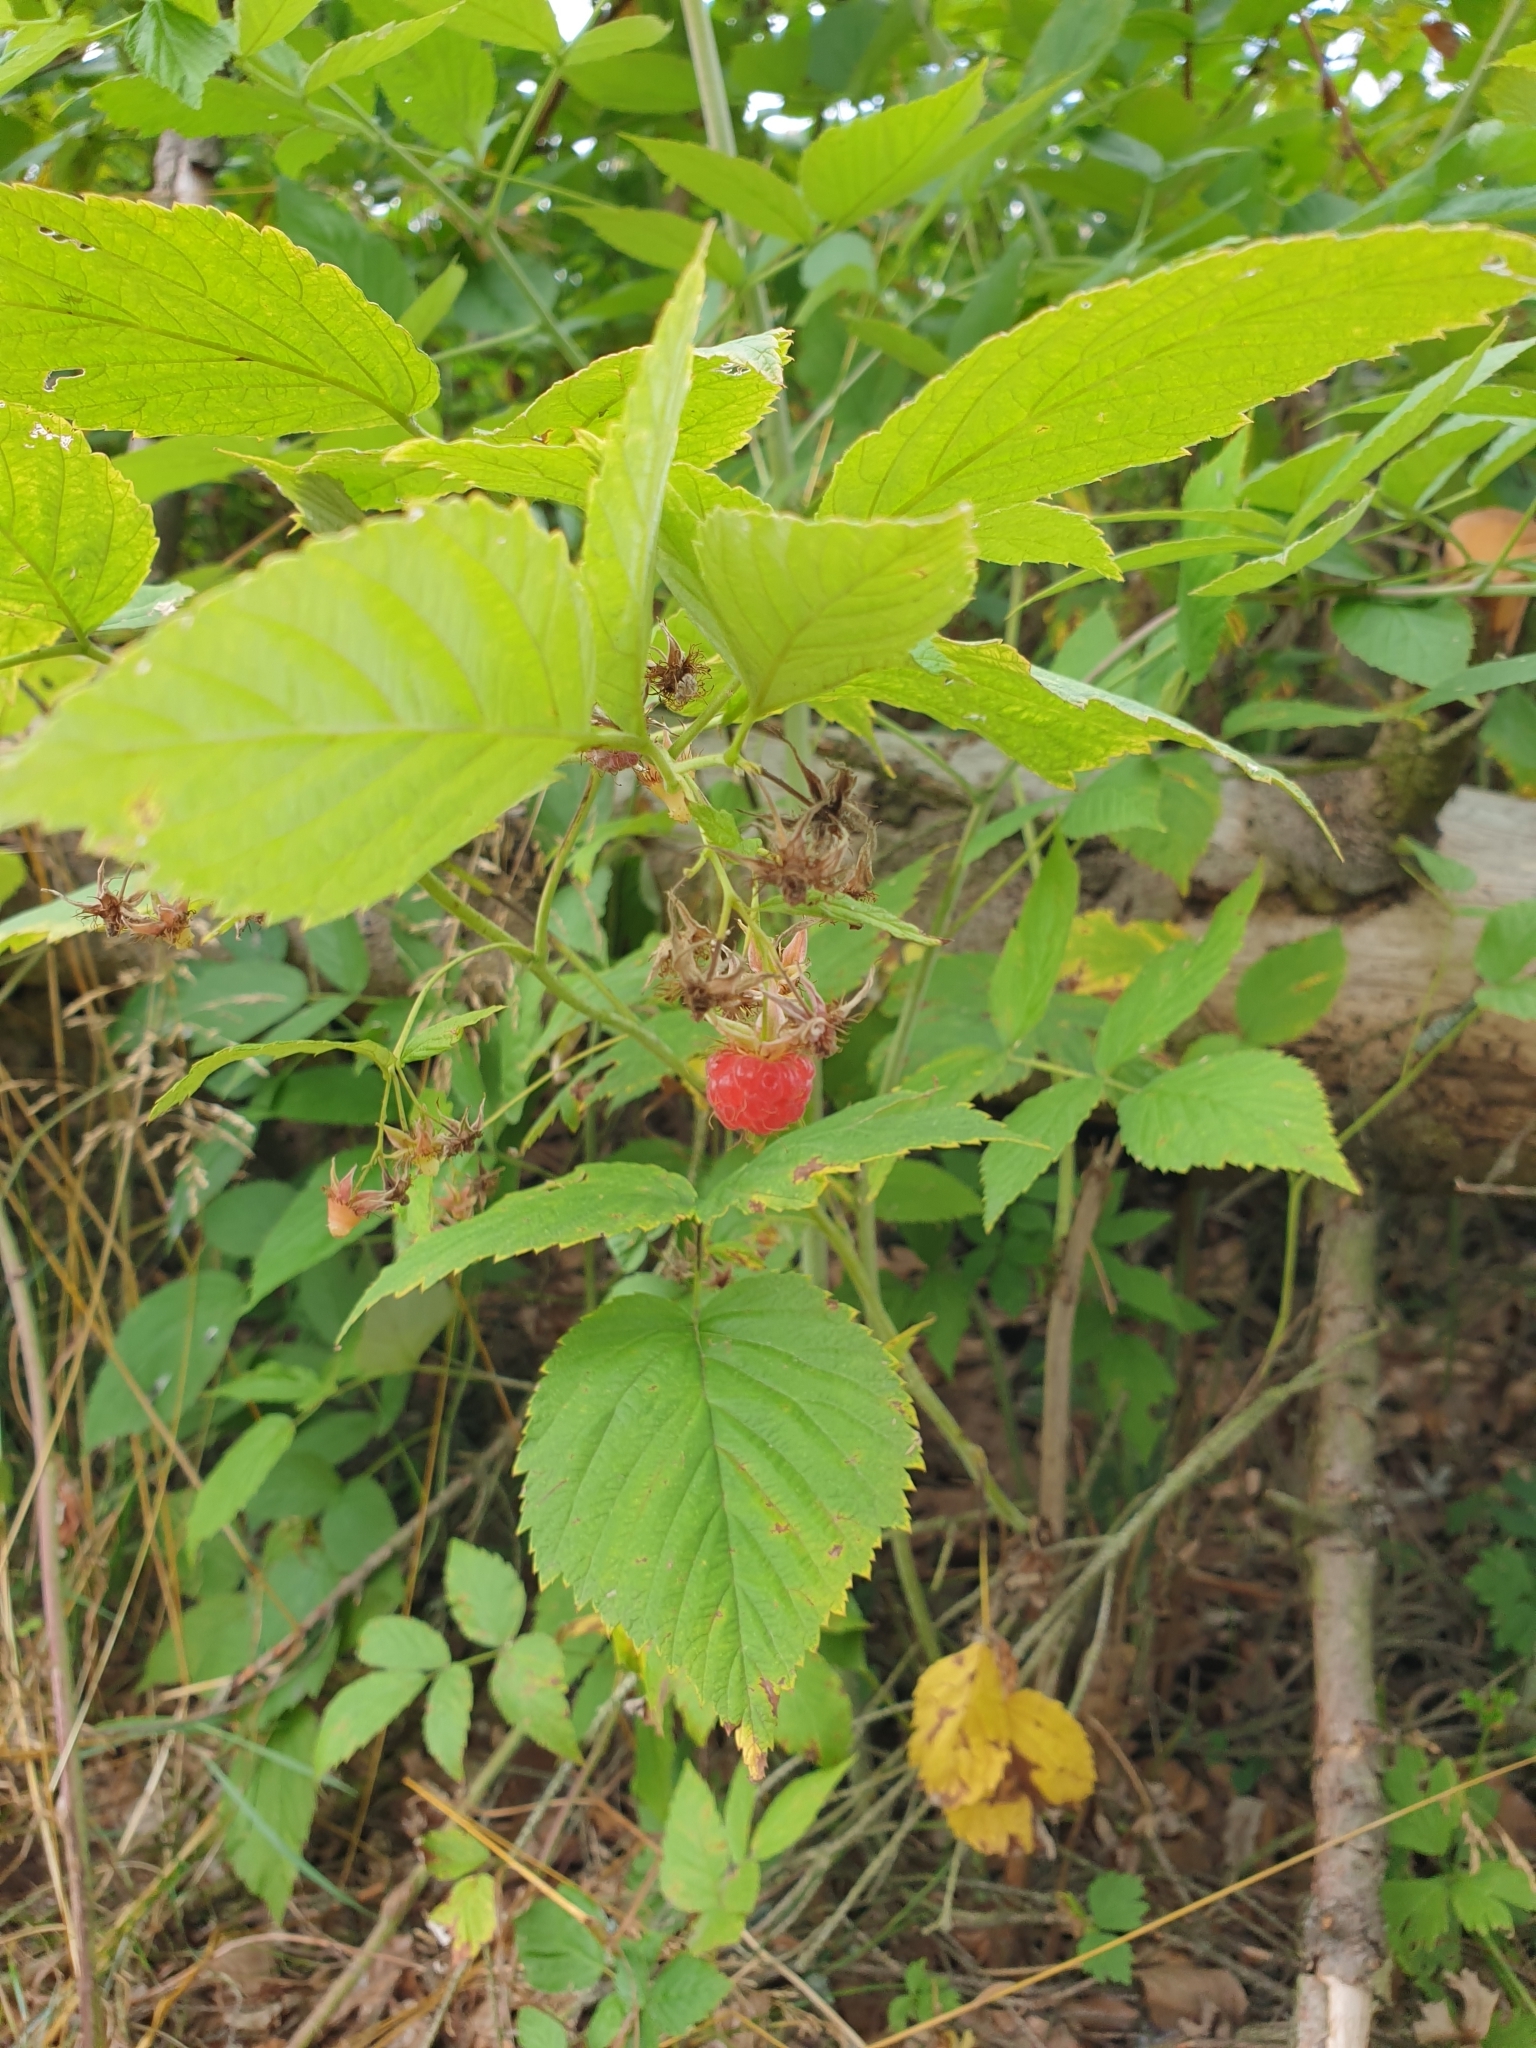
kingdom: Plantae
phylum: Tracheophyta
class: Magnoliopsida
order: Rosales
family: Rosaceae
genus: Rubus
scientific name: Rubus idaeus
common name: Raspberry
